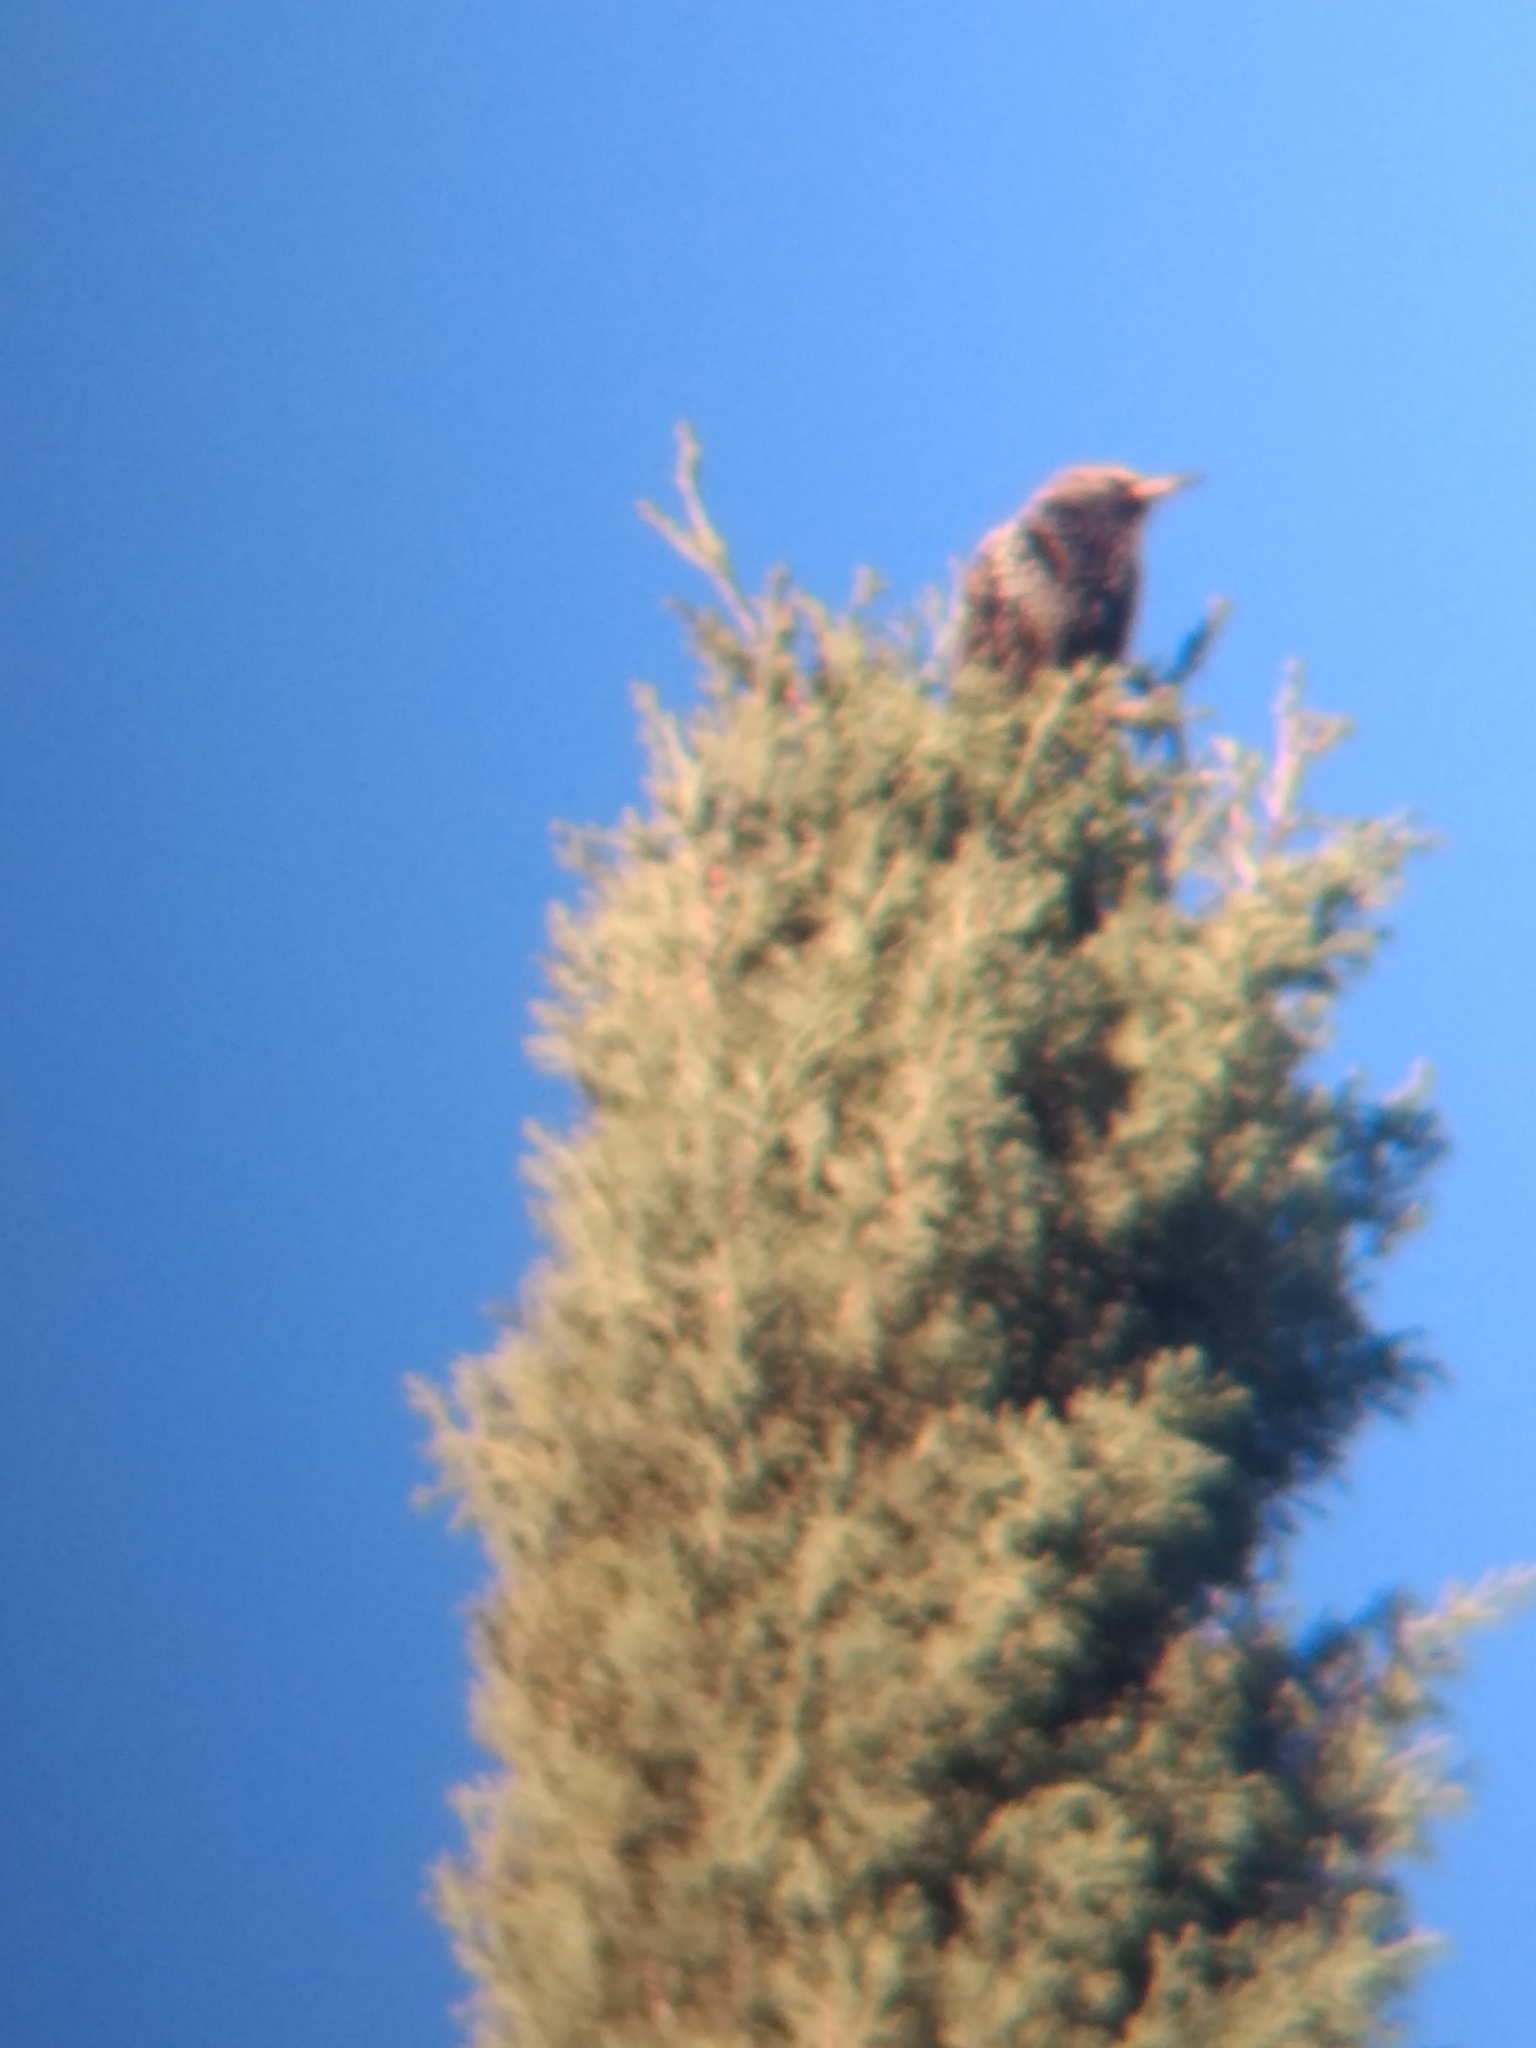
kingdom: Animalia
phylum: Chordata
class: Aves
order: Passeriformes
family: Sturnidae
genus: Sturnus
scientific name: Sturnus vulgaris
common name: Common starling
